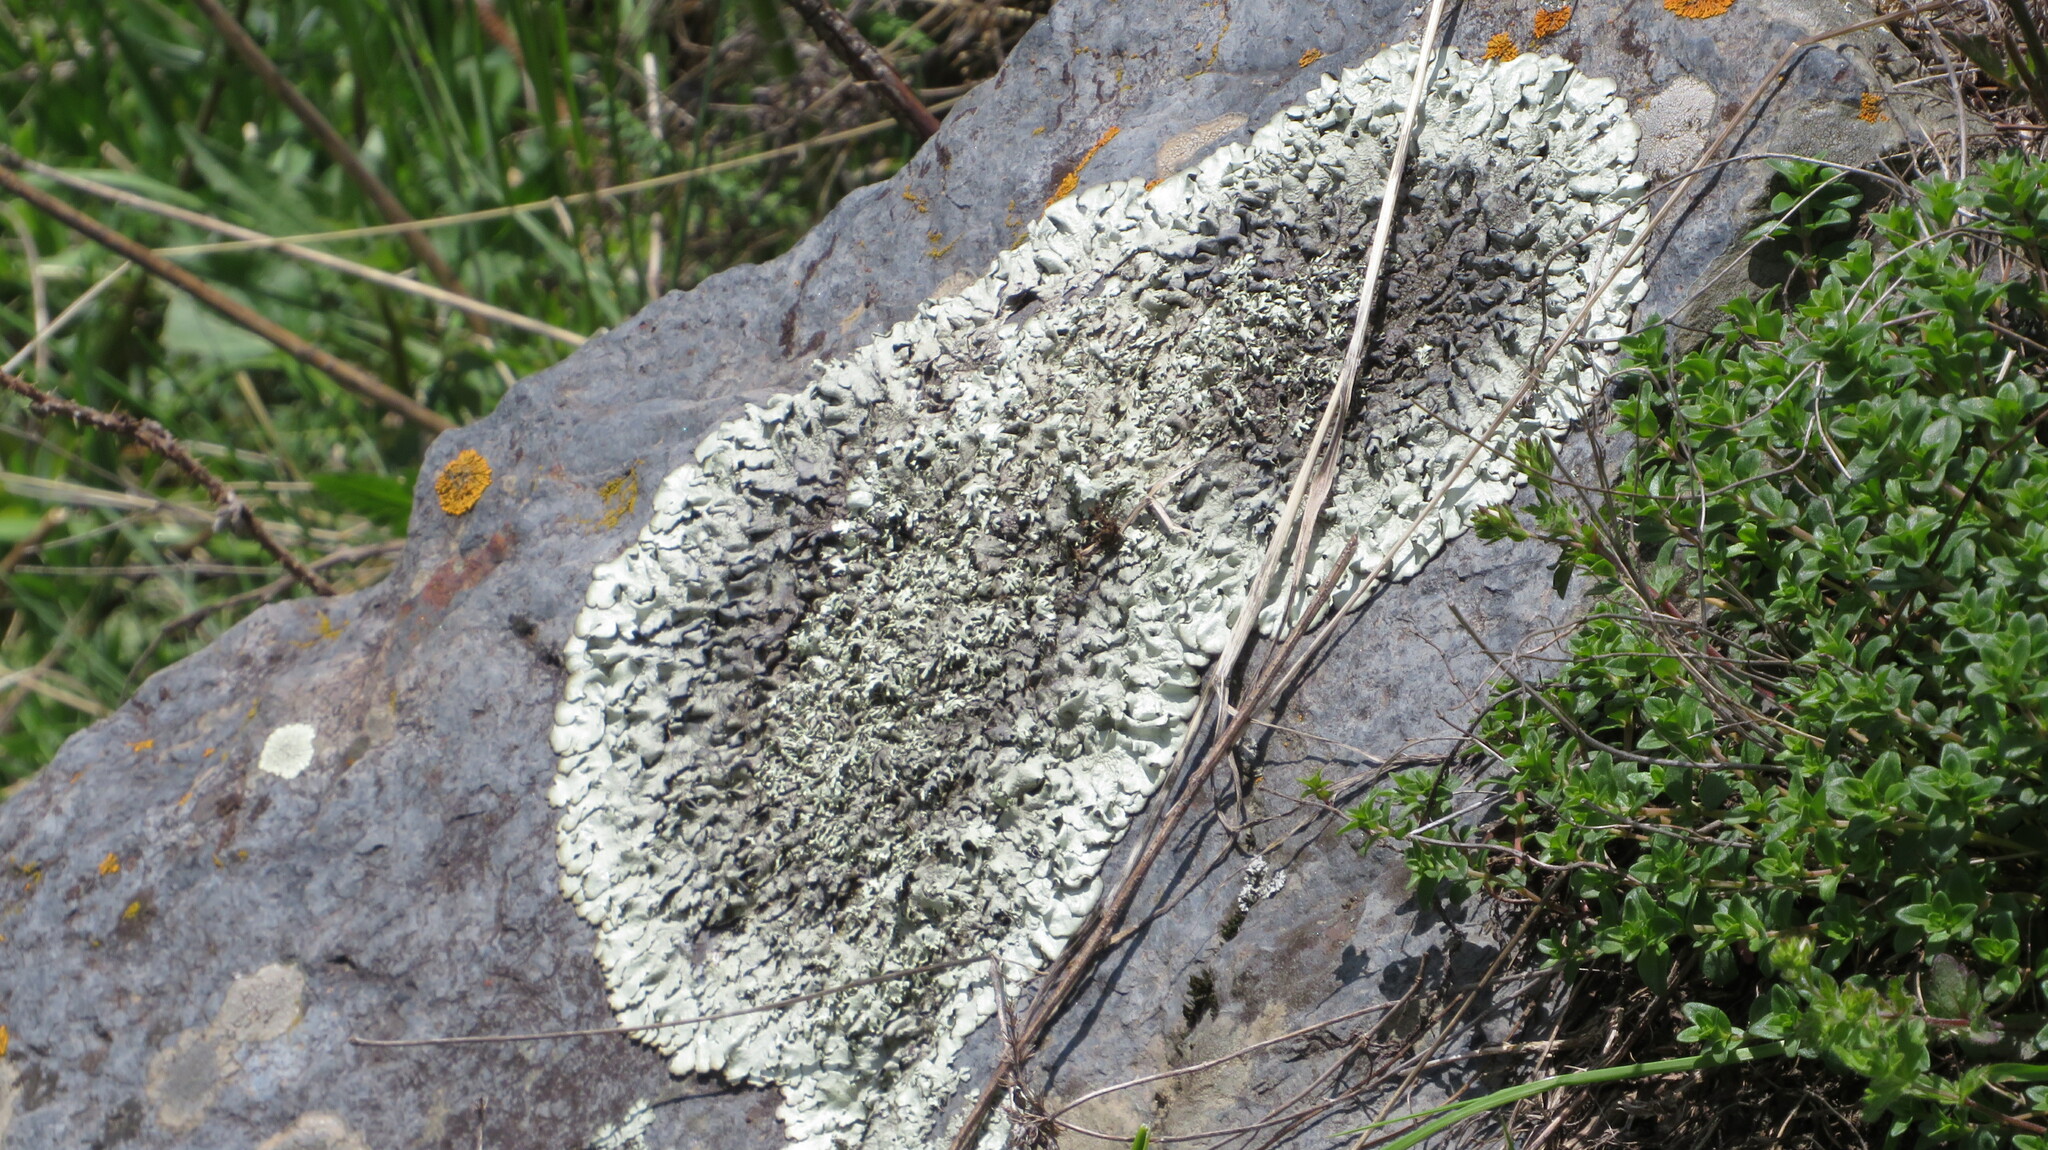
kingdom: Fungi
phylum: Ascomycota
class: Lecanoromycetes
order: Lecanorales
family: Parmeliaceae
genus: Xanthoparmelia
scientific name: Xanthoparmelia stenophylla
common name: Shingled rock shield
